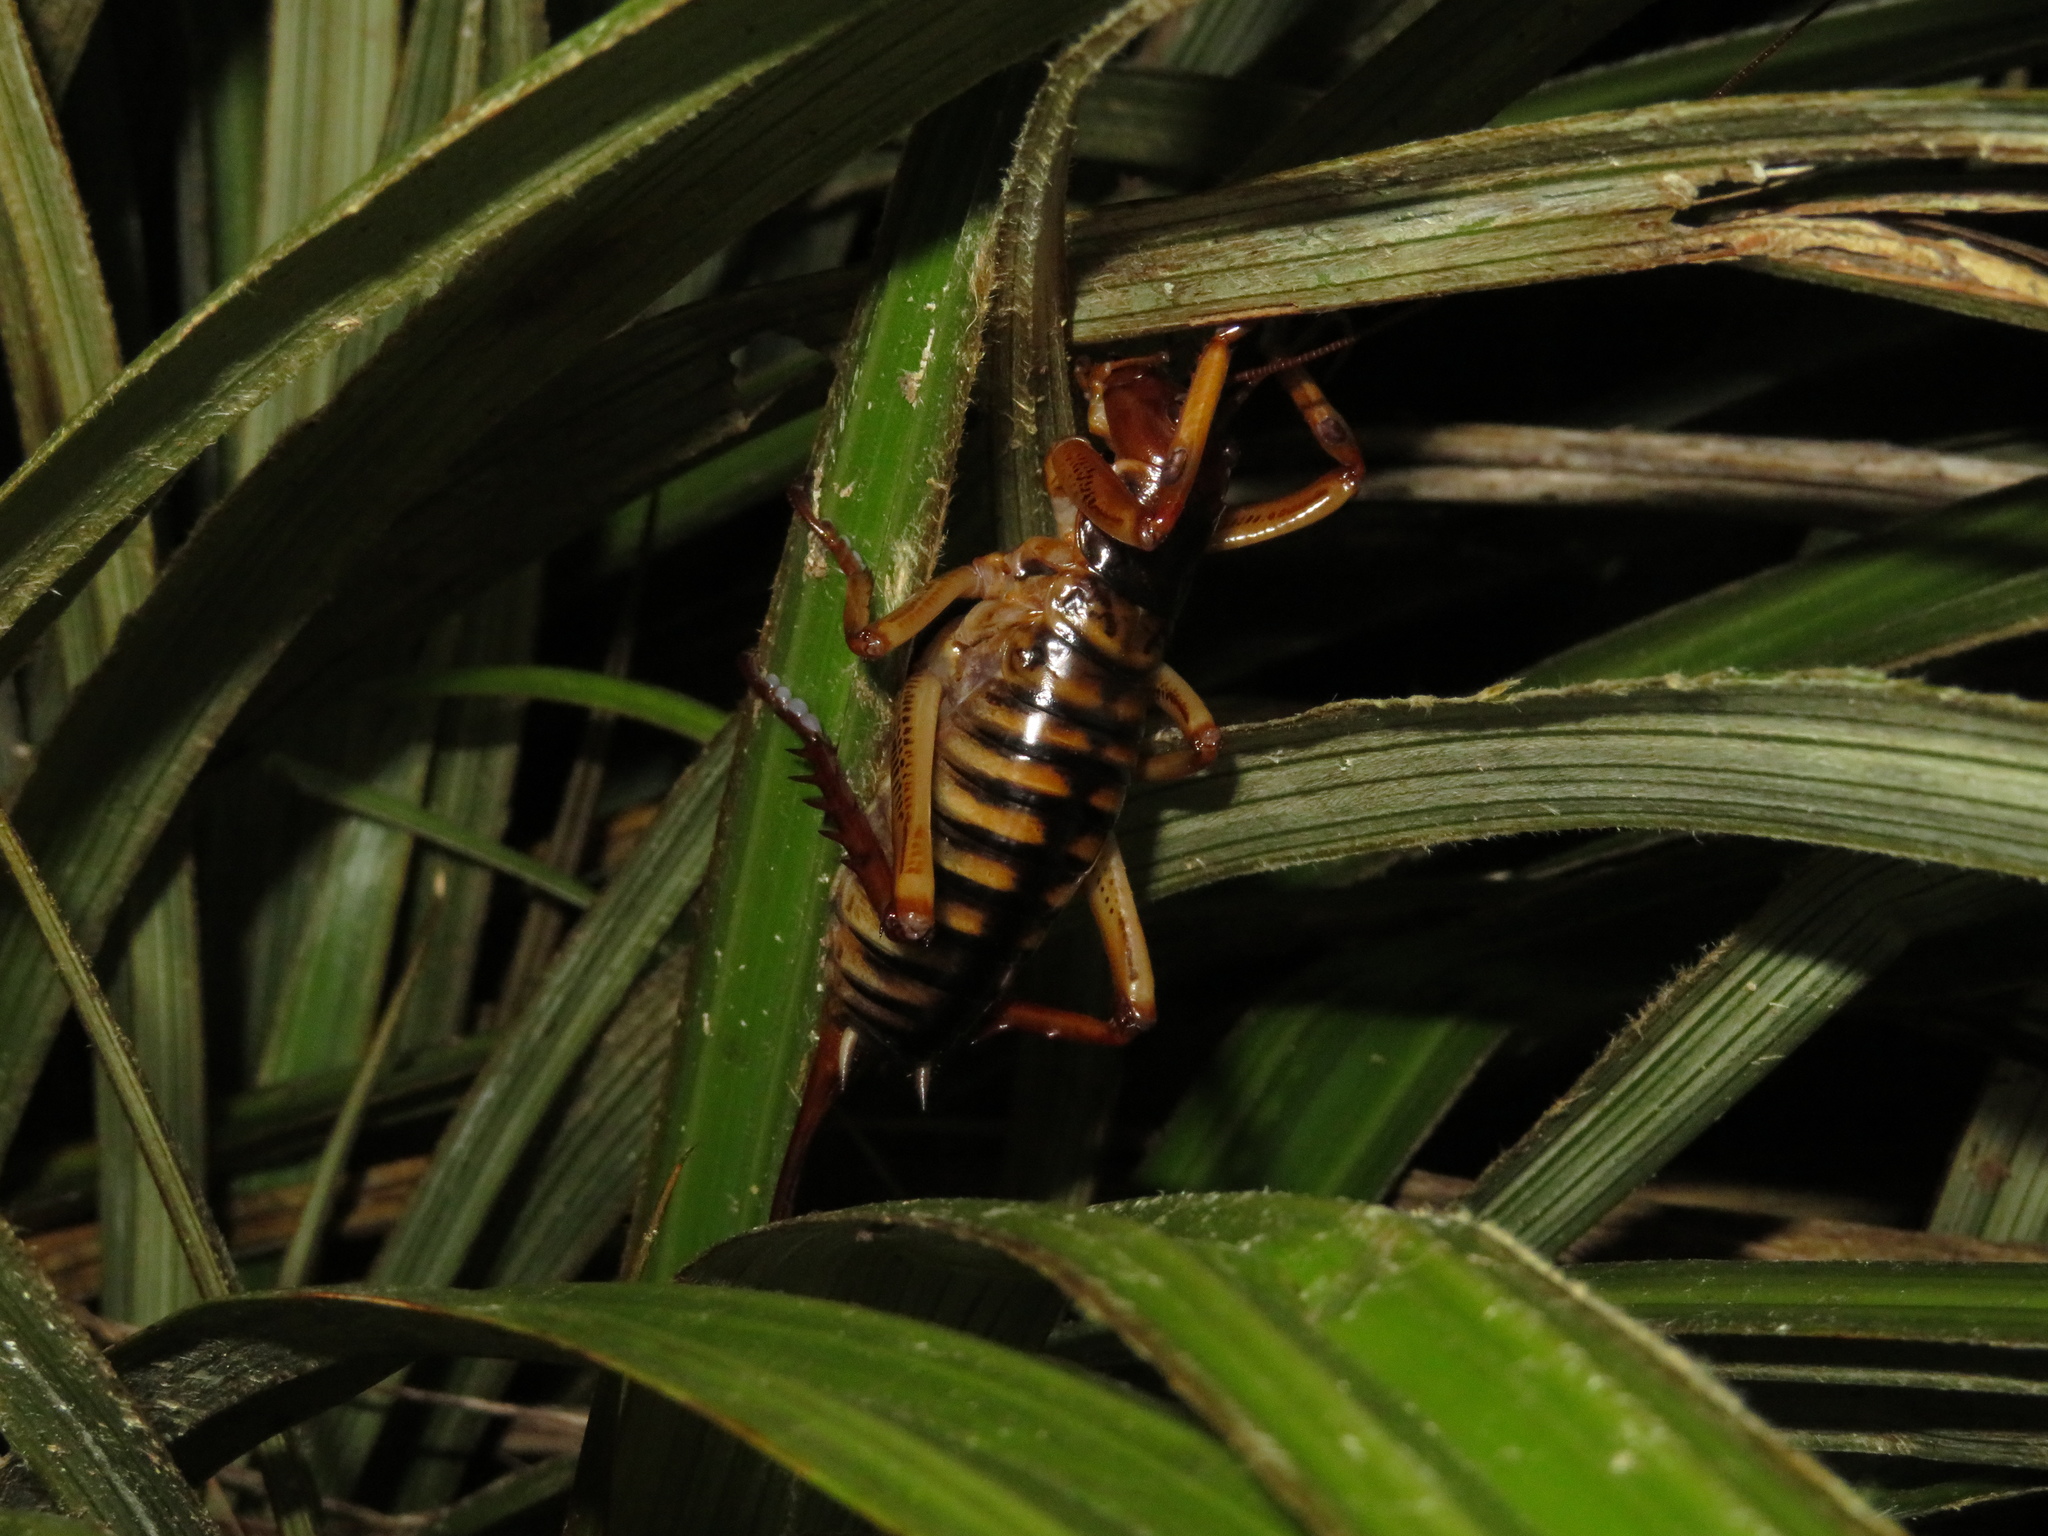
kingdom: Animalia
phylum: Arthropoda
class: Insecta
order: Orthoptera
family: Anostostomatidae
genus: Hemideina
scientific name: Hemideina crassidens
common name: Wellington tree weta
